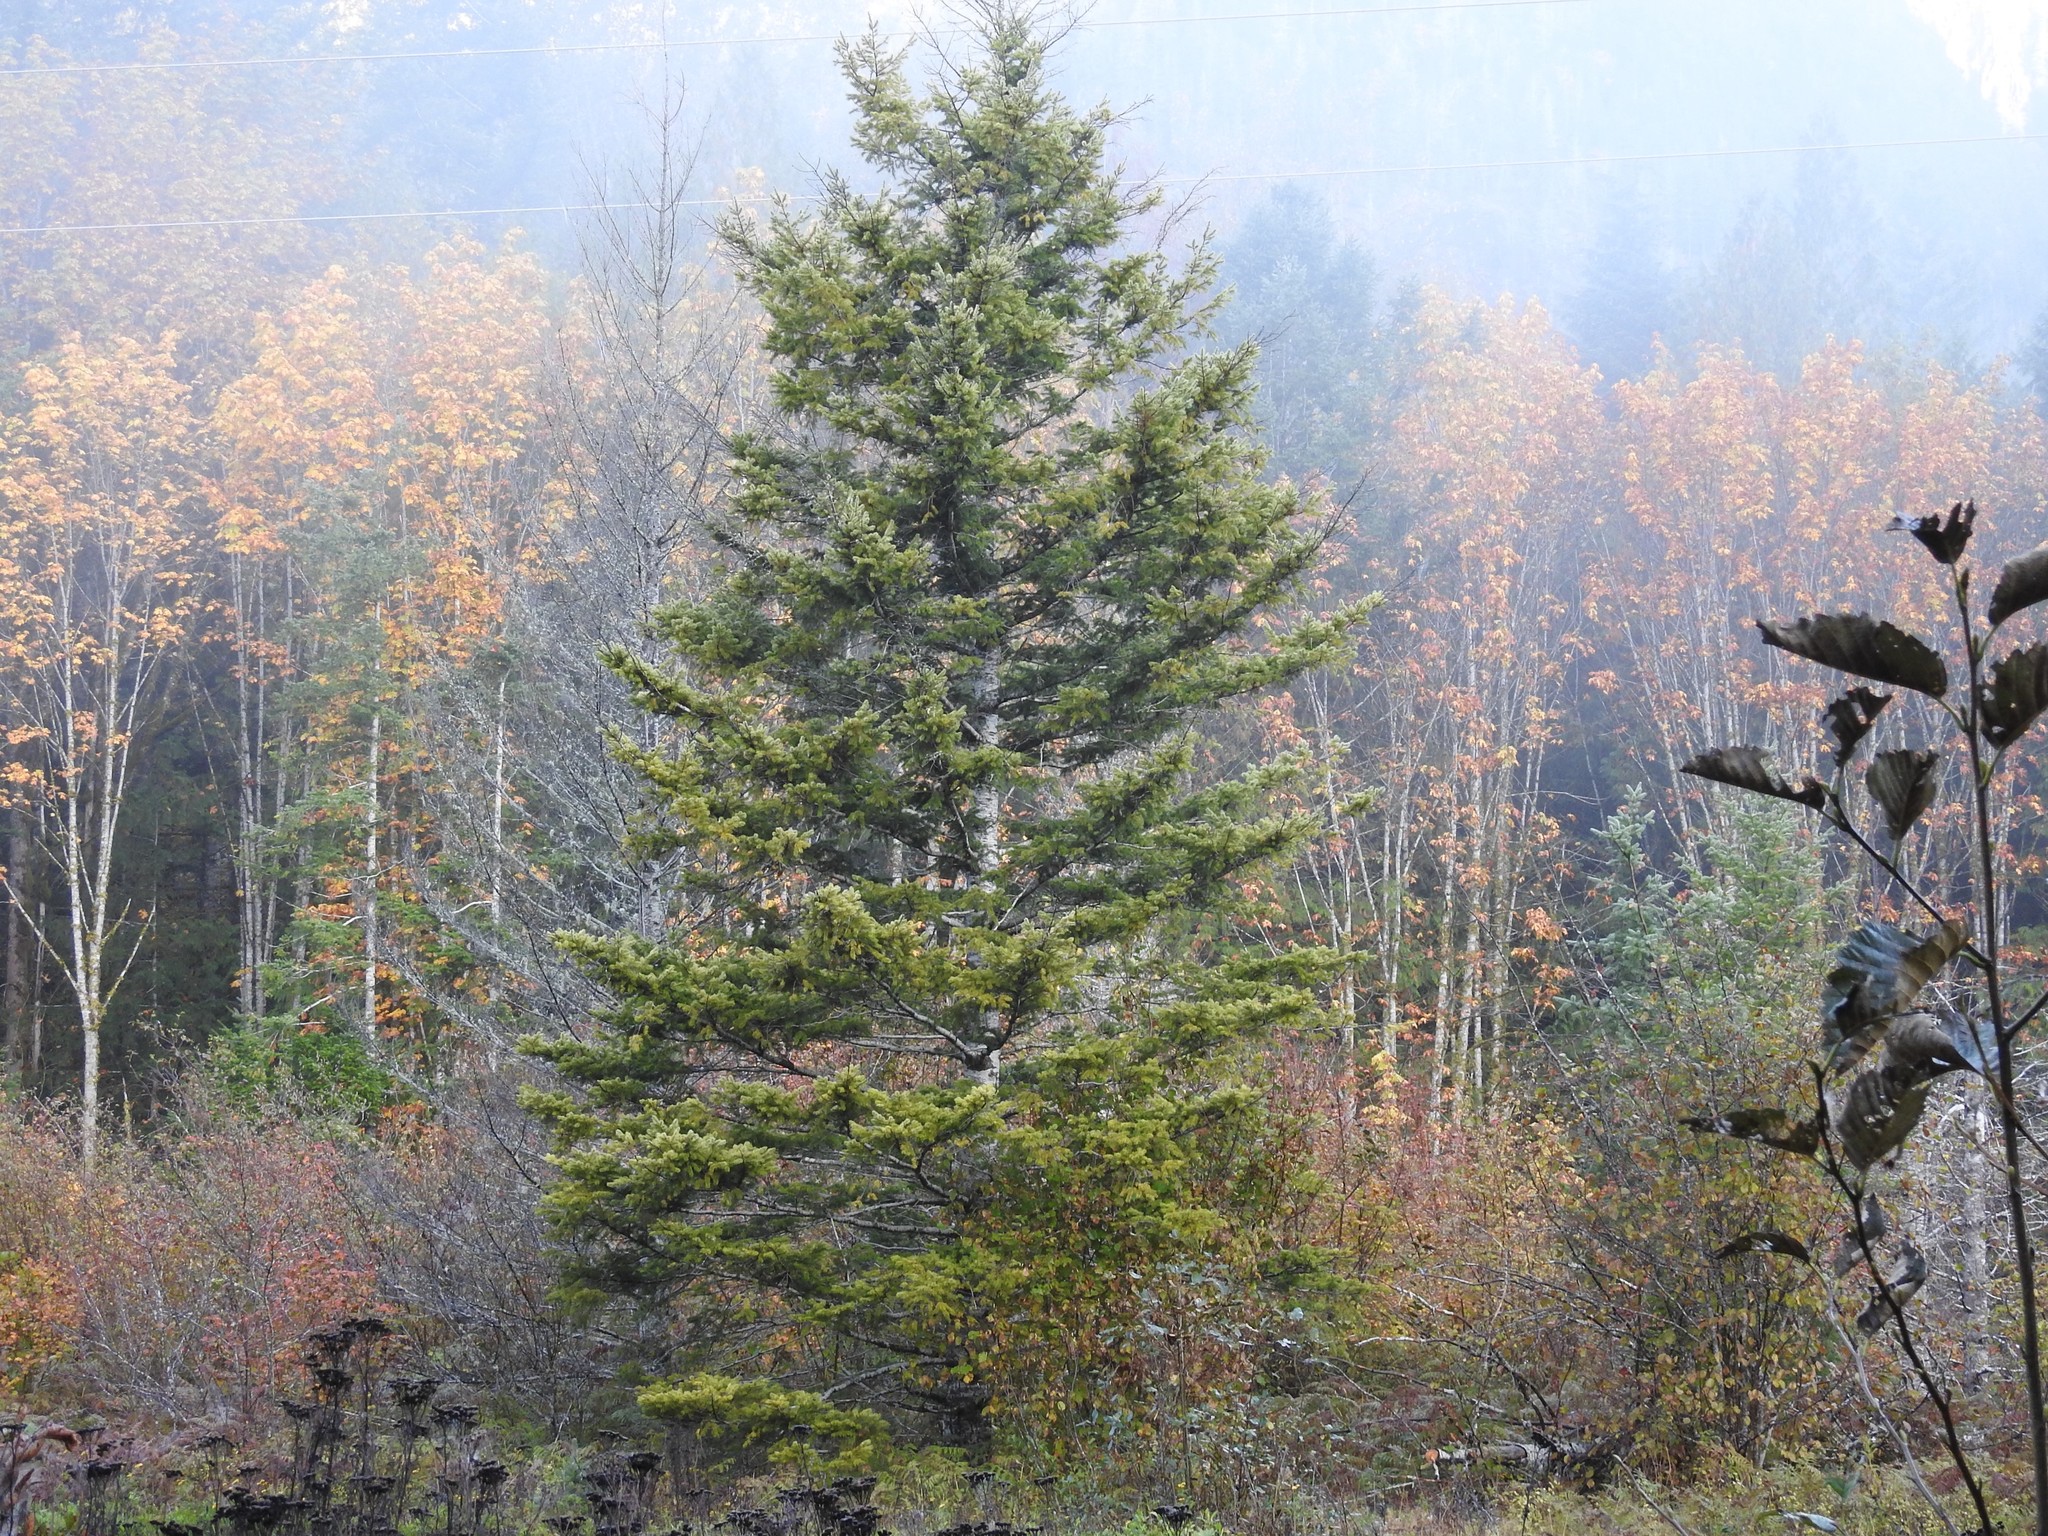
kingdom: Plantae
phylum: Tracheophyta
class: Pinopsida
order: Pinales
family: Pinaceae
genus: Pseudotsuga
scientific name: Pseudotsuga menziesii
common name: Douglas fir
